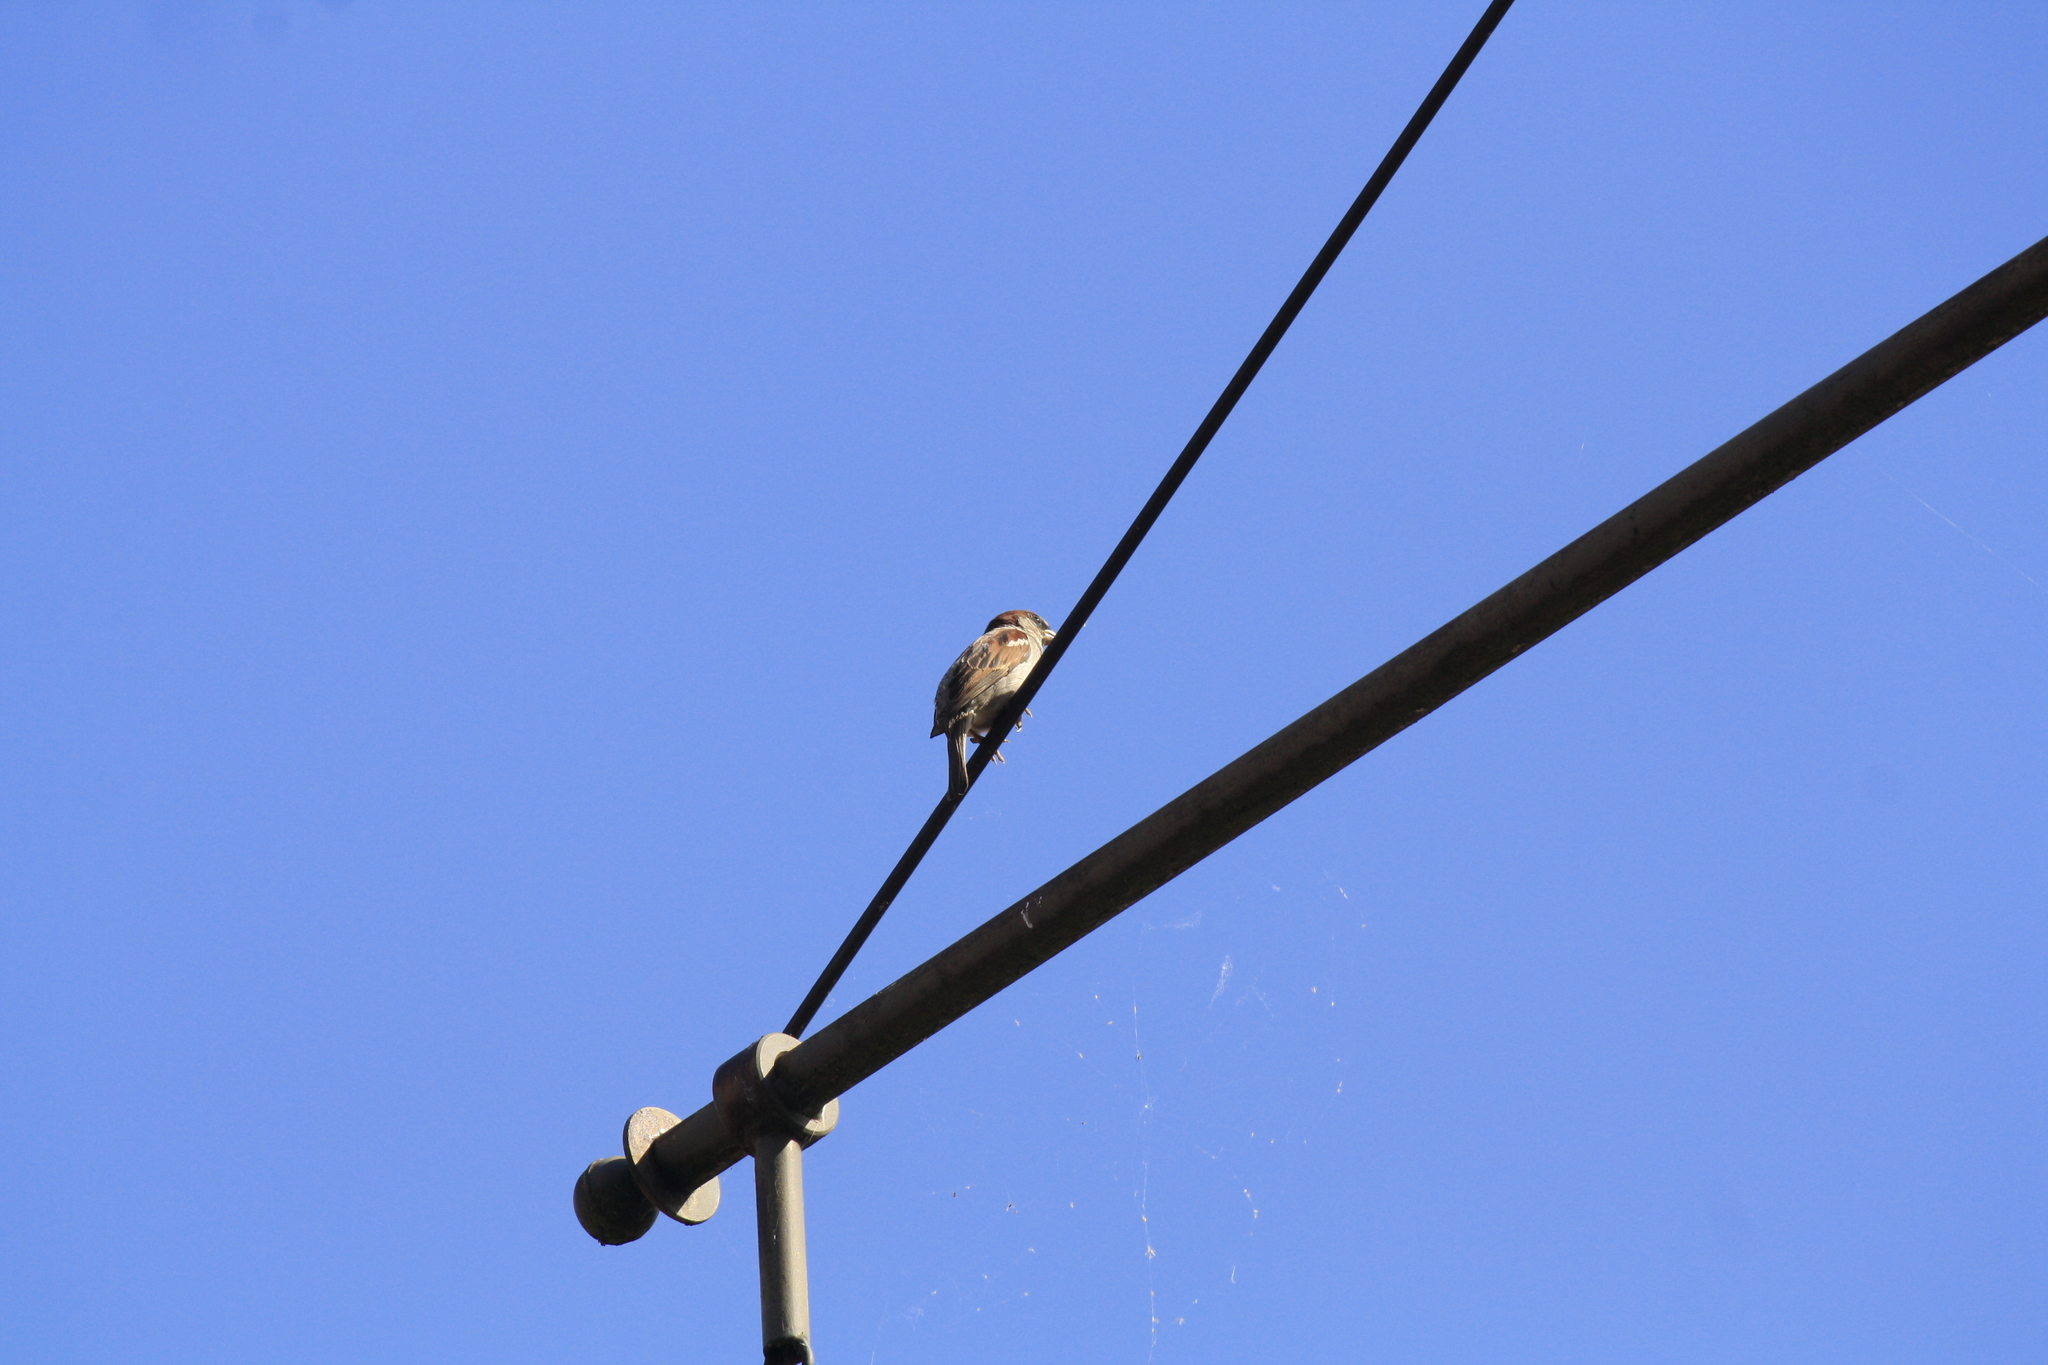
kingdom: Animalia
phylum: Chordata
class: Aves
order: Passeriformes
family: Passeridae
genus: Passer
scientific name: Passer domesticus
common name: House sparrow
